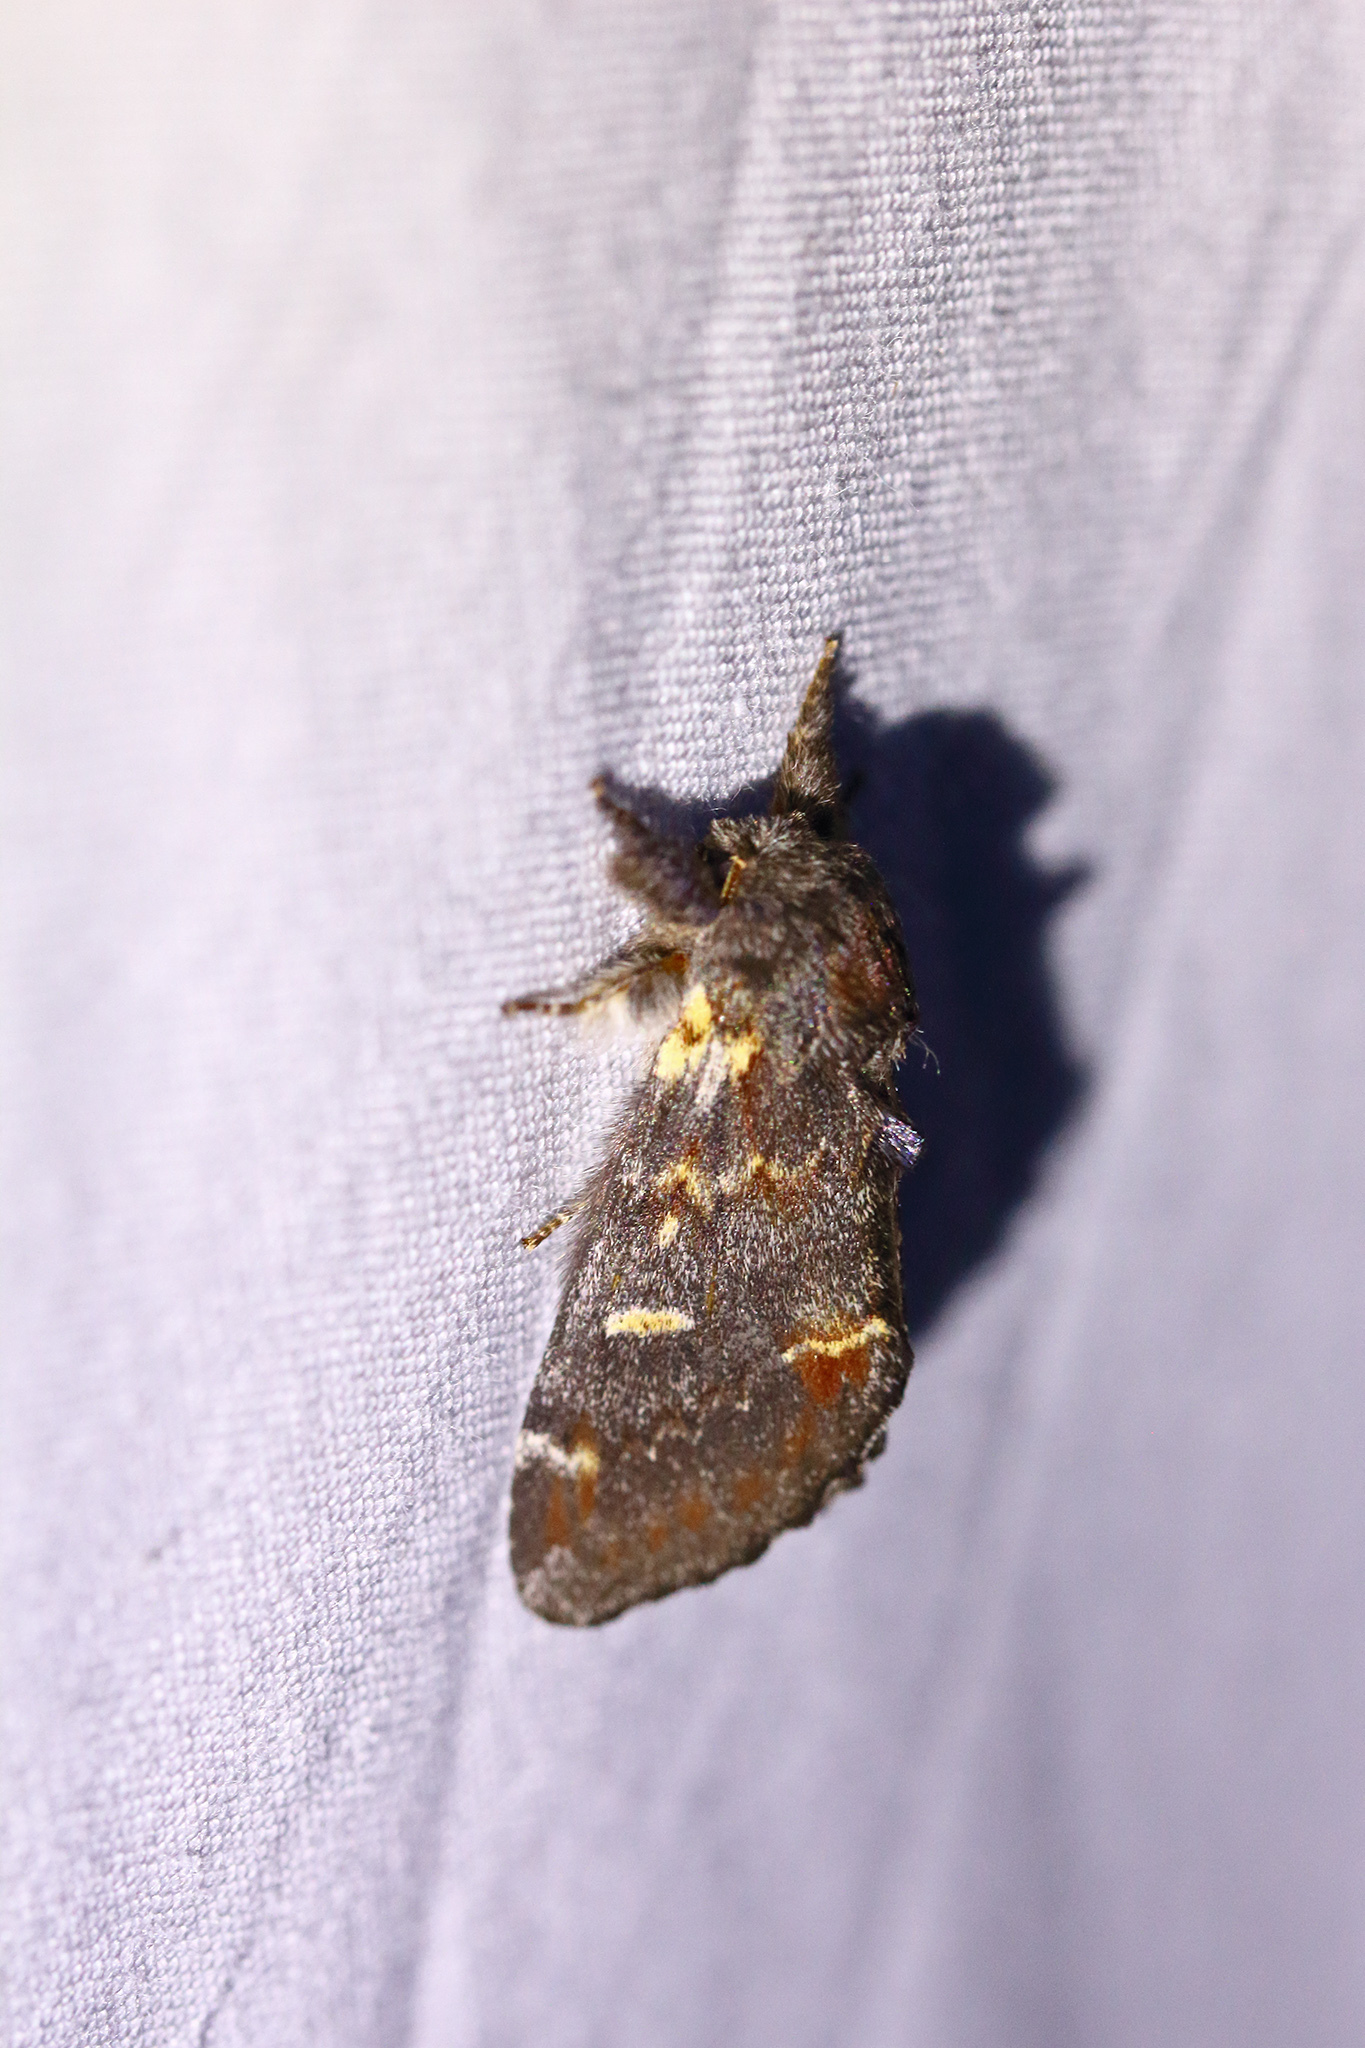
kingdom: Animalia
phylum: Arthropoda
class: Insecta
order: Lepidoptera
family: Notodontidae
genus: Notodonta
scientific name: Notodonta dromedarius
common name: Iron prominent
